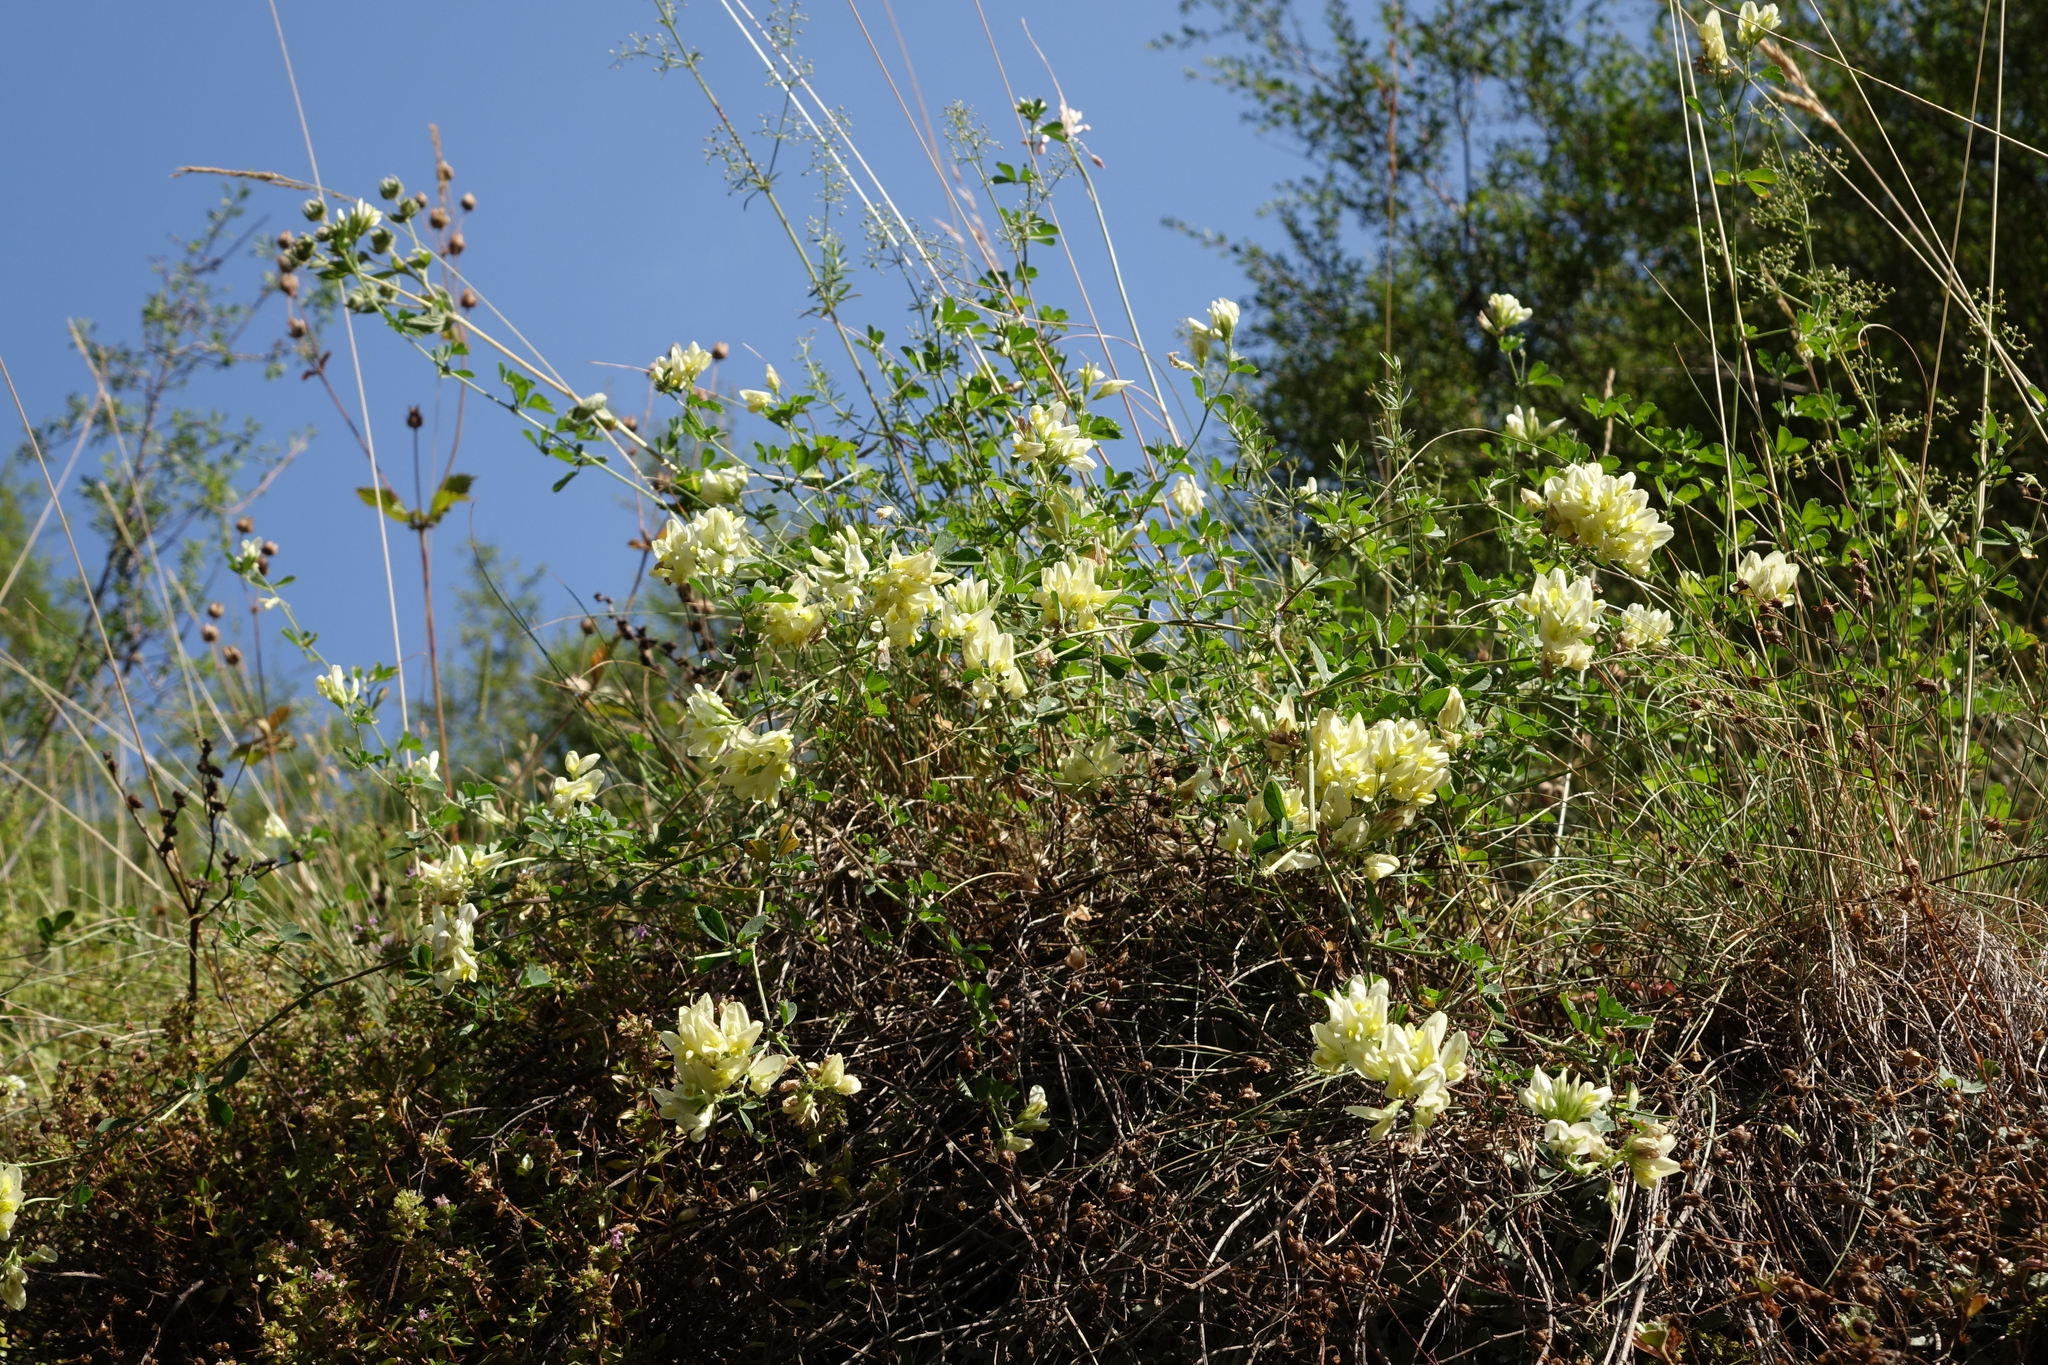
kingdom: Plantae
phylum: Tracheophyta
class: Magnoliopsida
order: Fabales
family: Fabaceae
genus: Medicago
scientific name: Medicago
